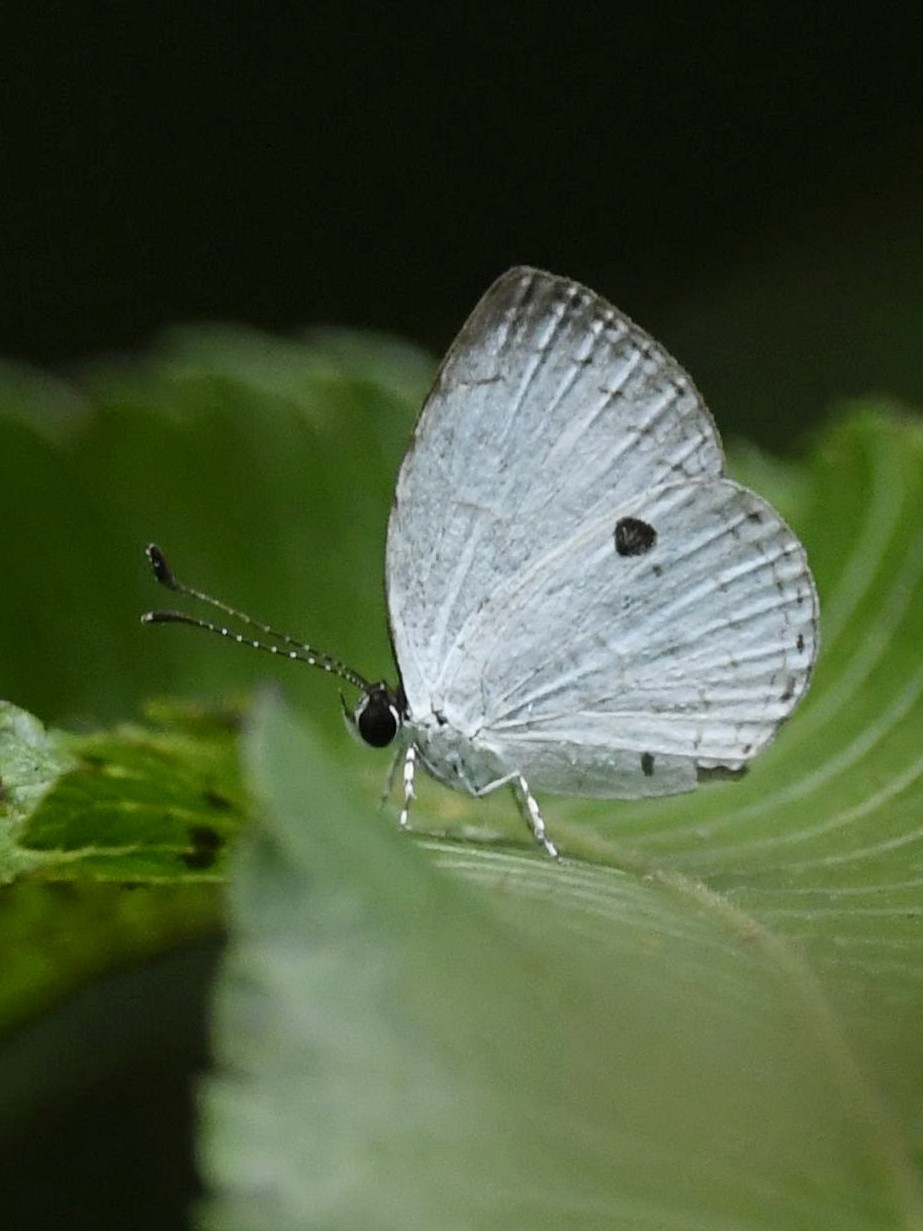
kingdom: Animalia
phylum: Arthropoda
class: Insecta
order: Lepidoptera
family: Lycaenidae
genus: Neopithecops
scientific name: Neopithecops zalmora
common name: Quaker
